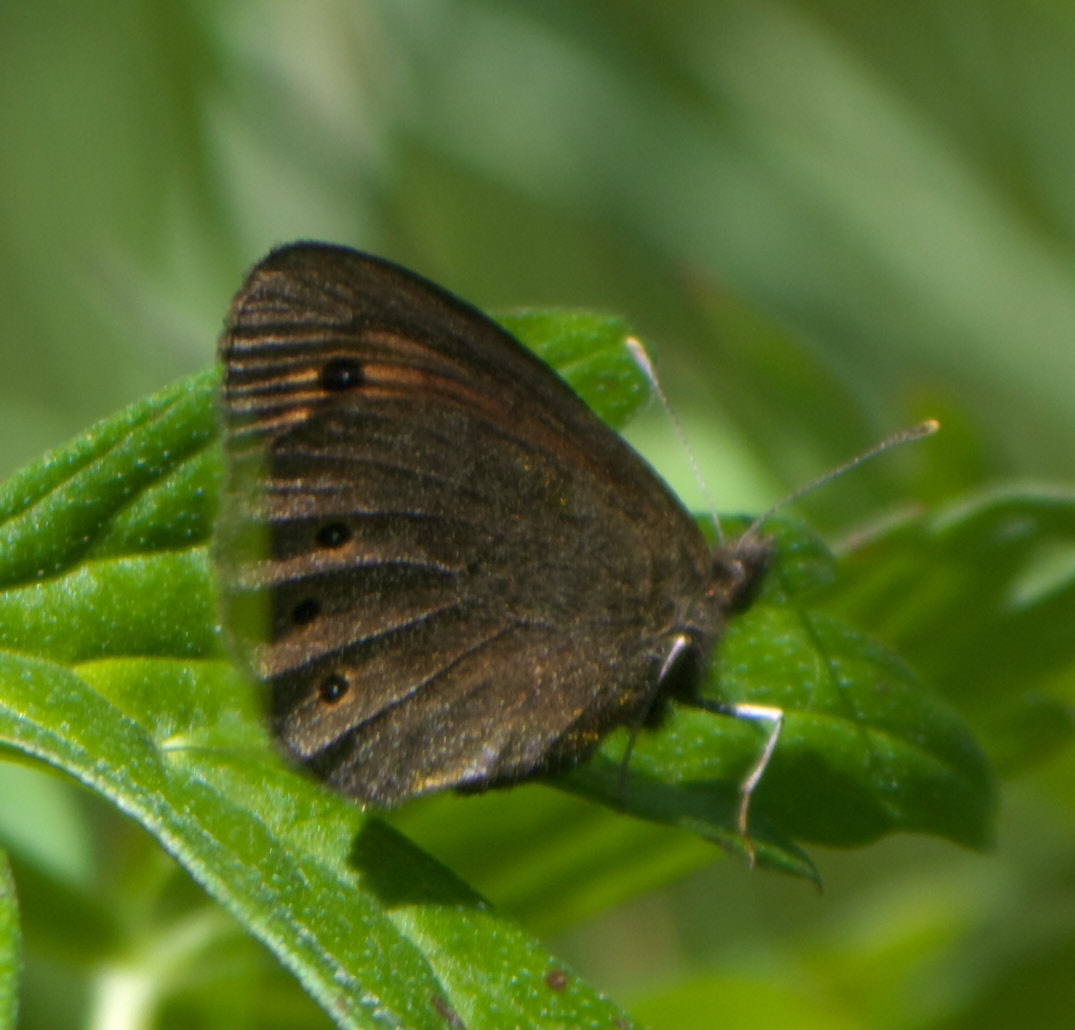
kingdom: Animalia
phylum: Arthropoda
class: Insecta
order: Lepidoptera
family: Nymphalidae
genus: Erebia
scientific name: Erebia epipsodea
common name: Common alpine
